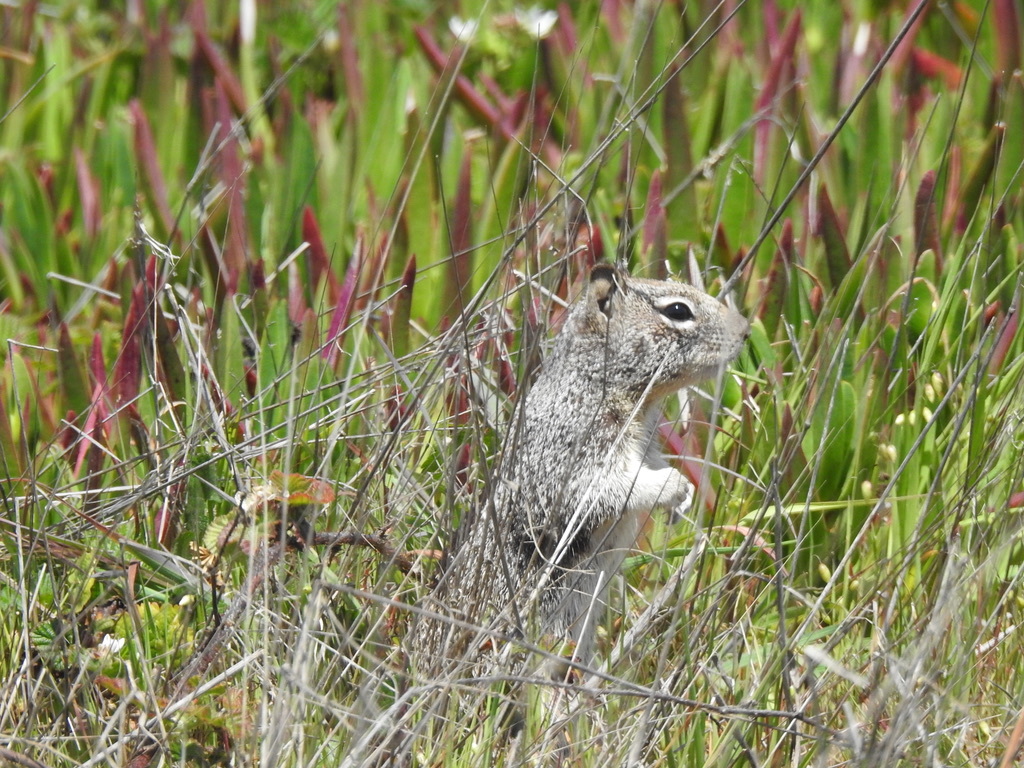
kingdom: Animalia
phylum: Chordata
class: Mammalia
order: Rodentia
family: Sciuridae
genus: Otospermophilus
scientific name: Otospermophilus beecheyi
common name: California ground squirrel
